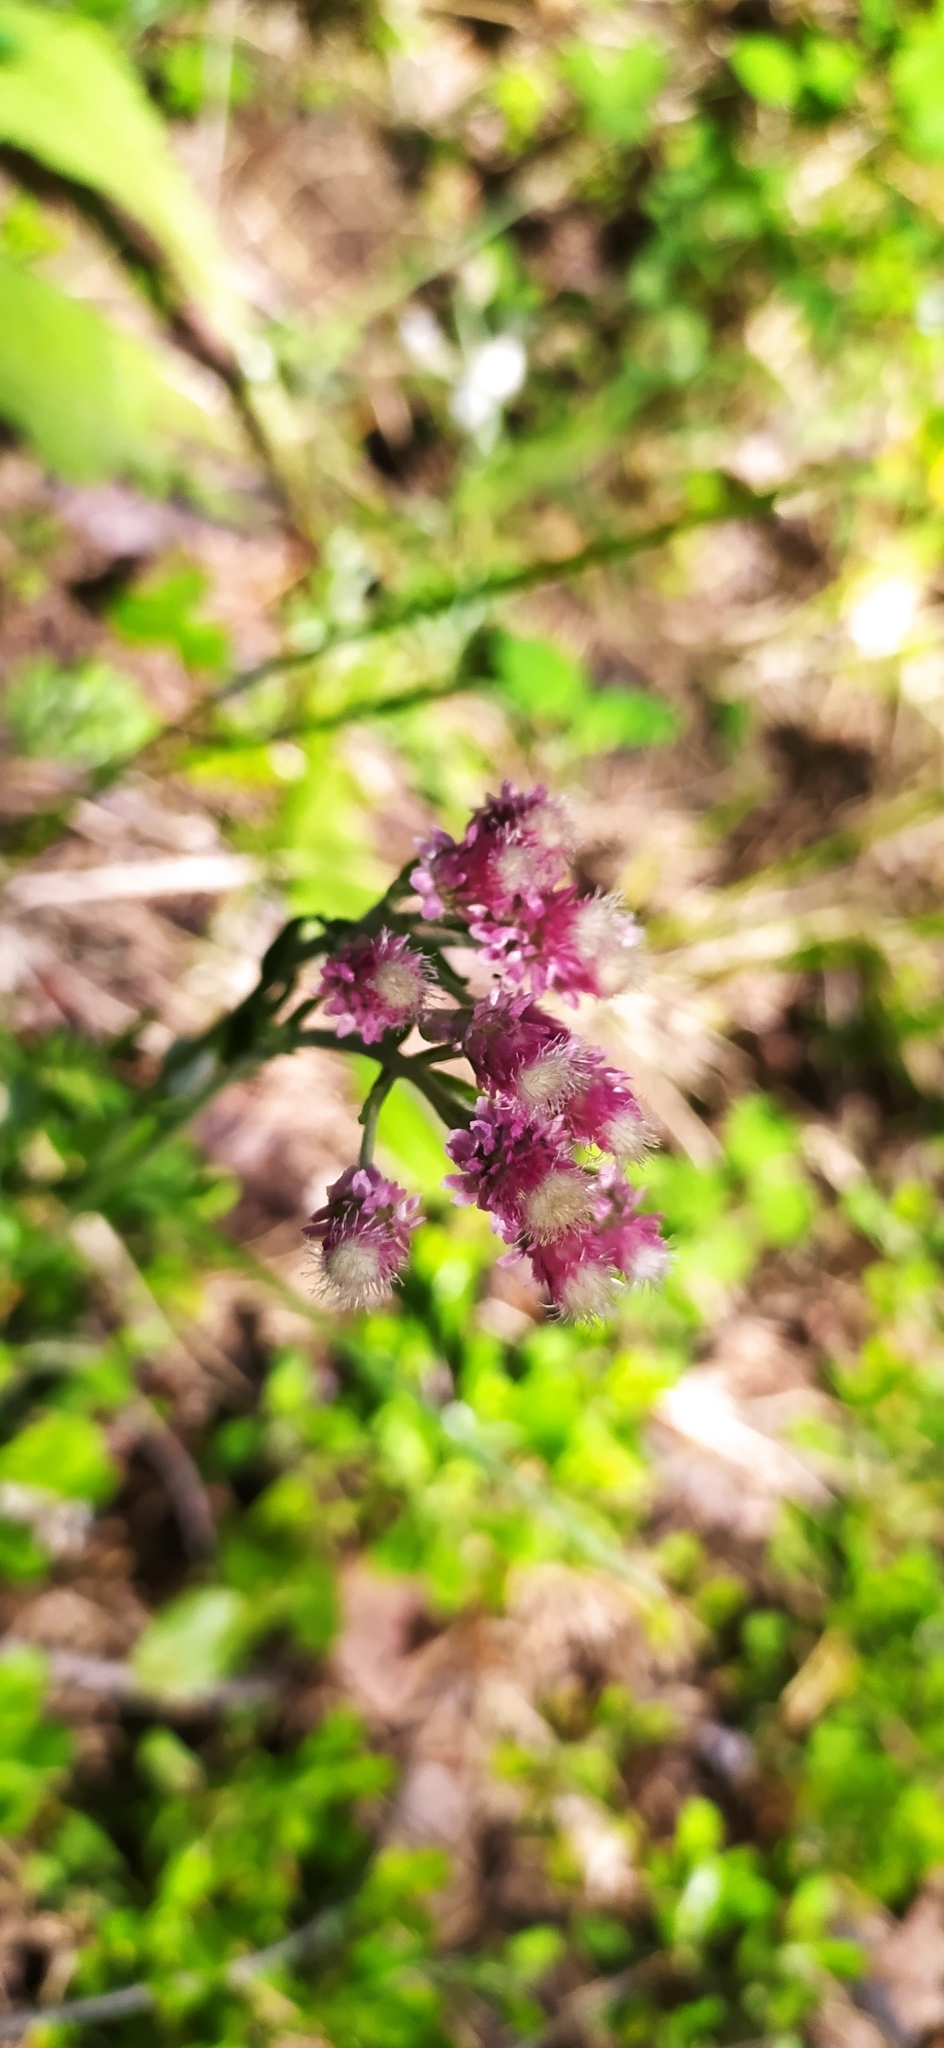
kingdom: Plantae
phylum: Tracheophyta
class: Magnoliopsida
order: Asterales
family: Asteraceae
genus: Antennaria
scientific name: Antennaria dioica
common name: Mountain everlasting
